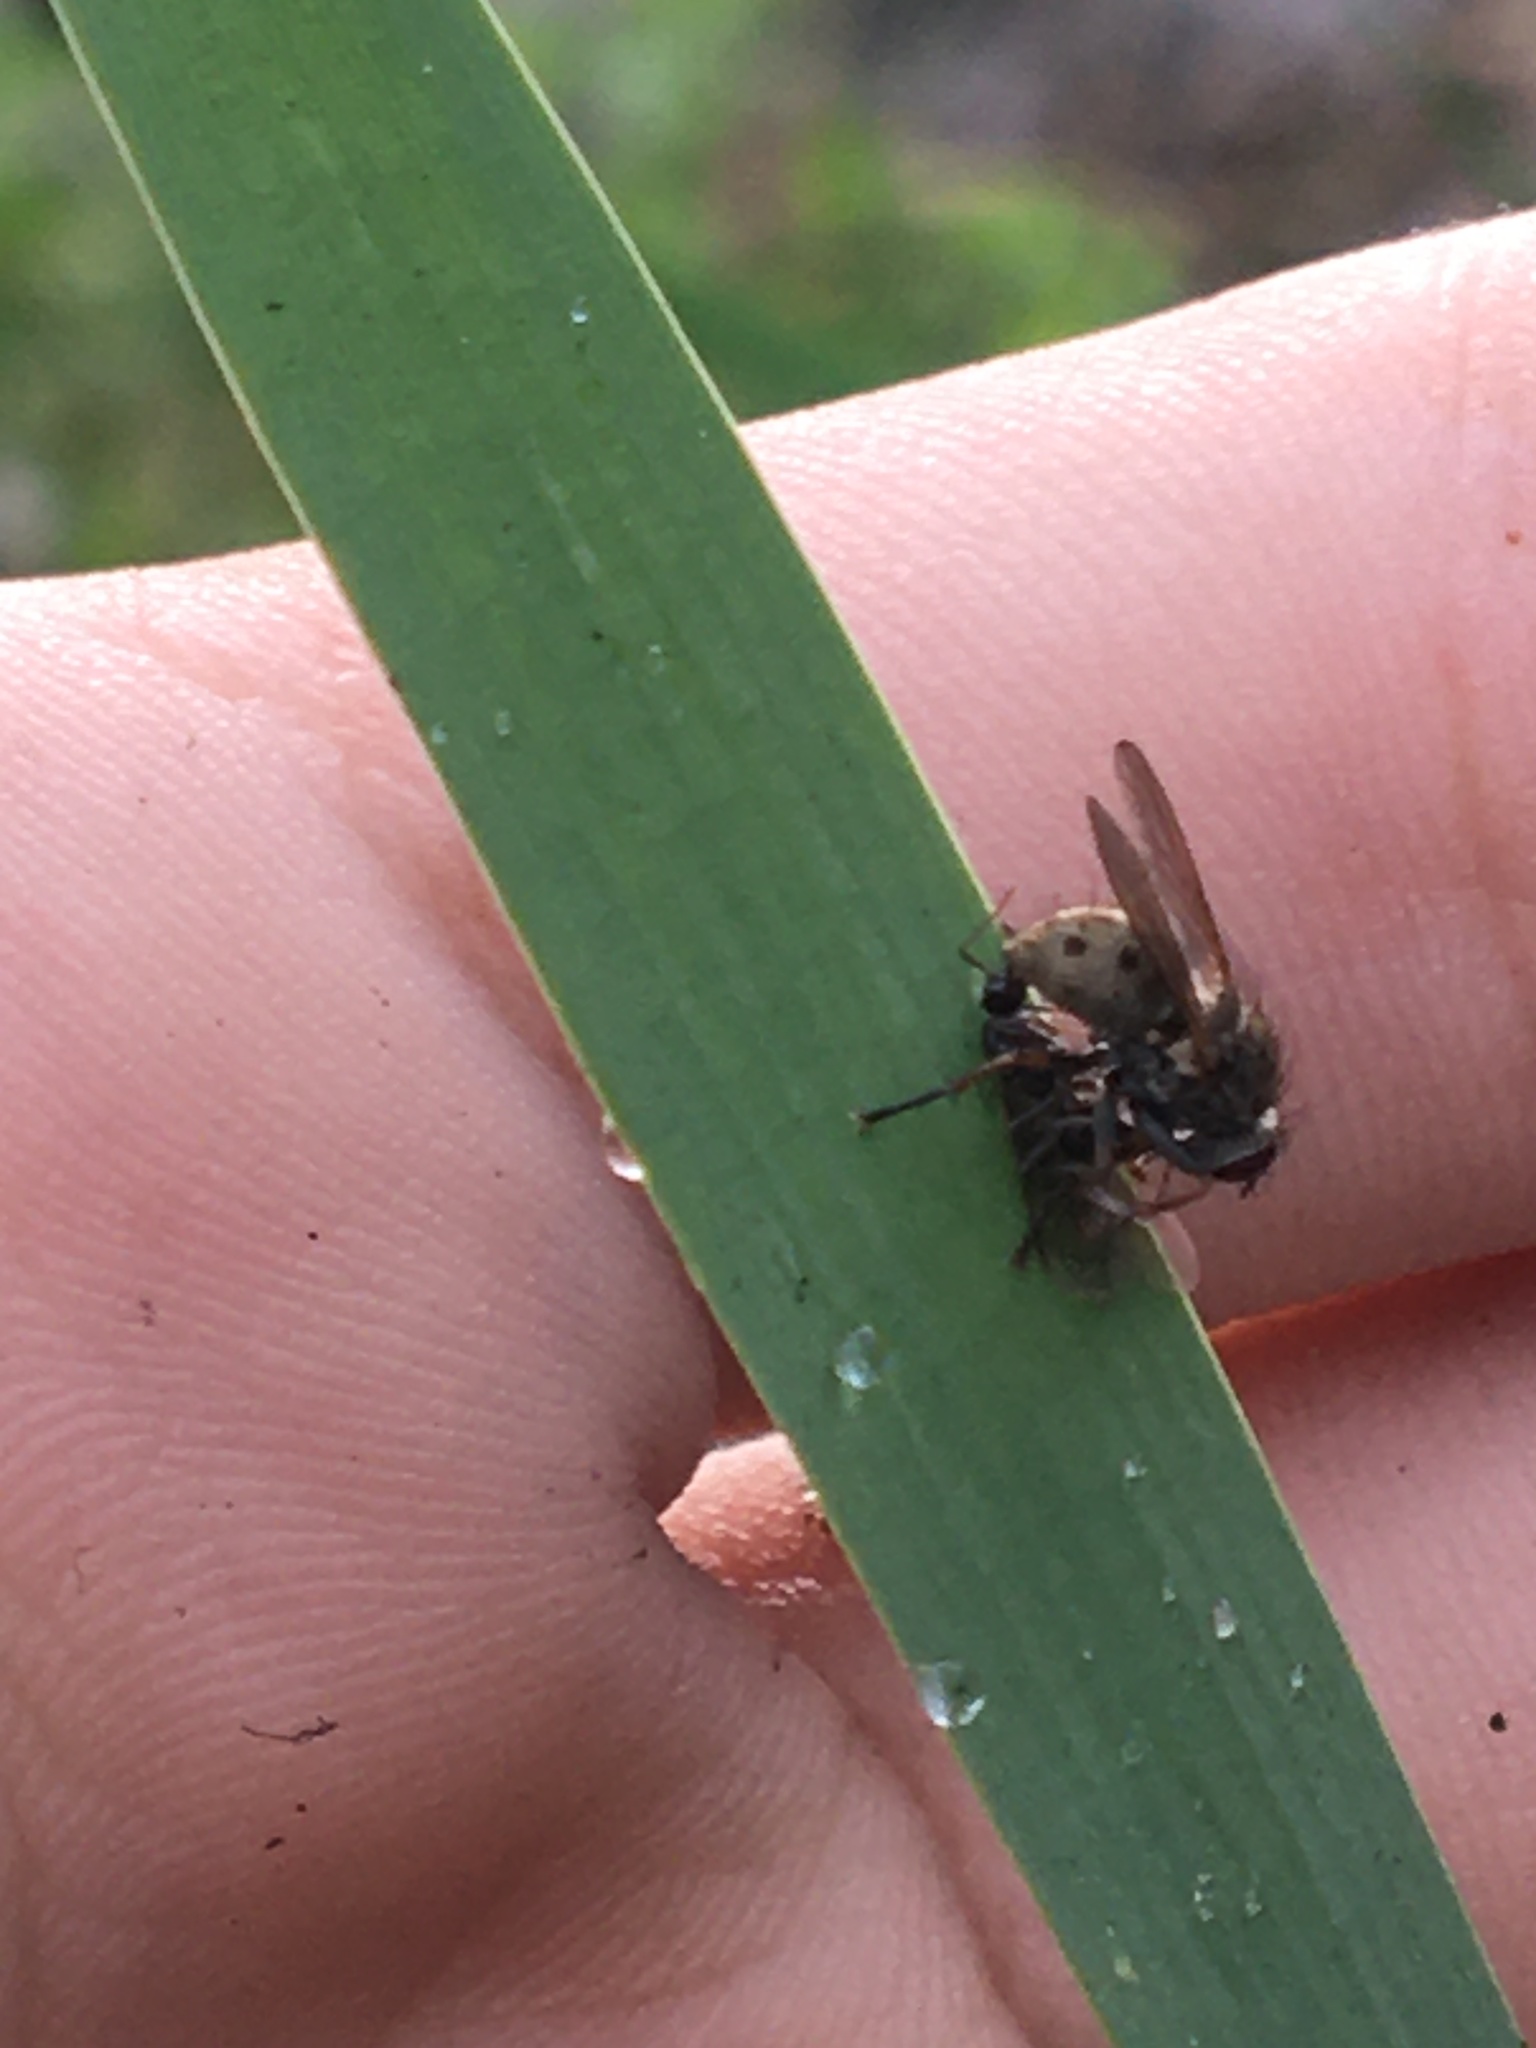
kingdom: Animalia
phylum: Arthropoda
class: Insecta
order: Diptera
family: Muscidae
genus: Coenosia
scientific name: Coenosia tigrina
